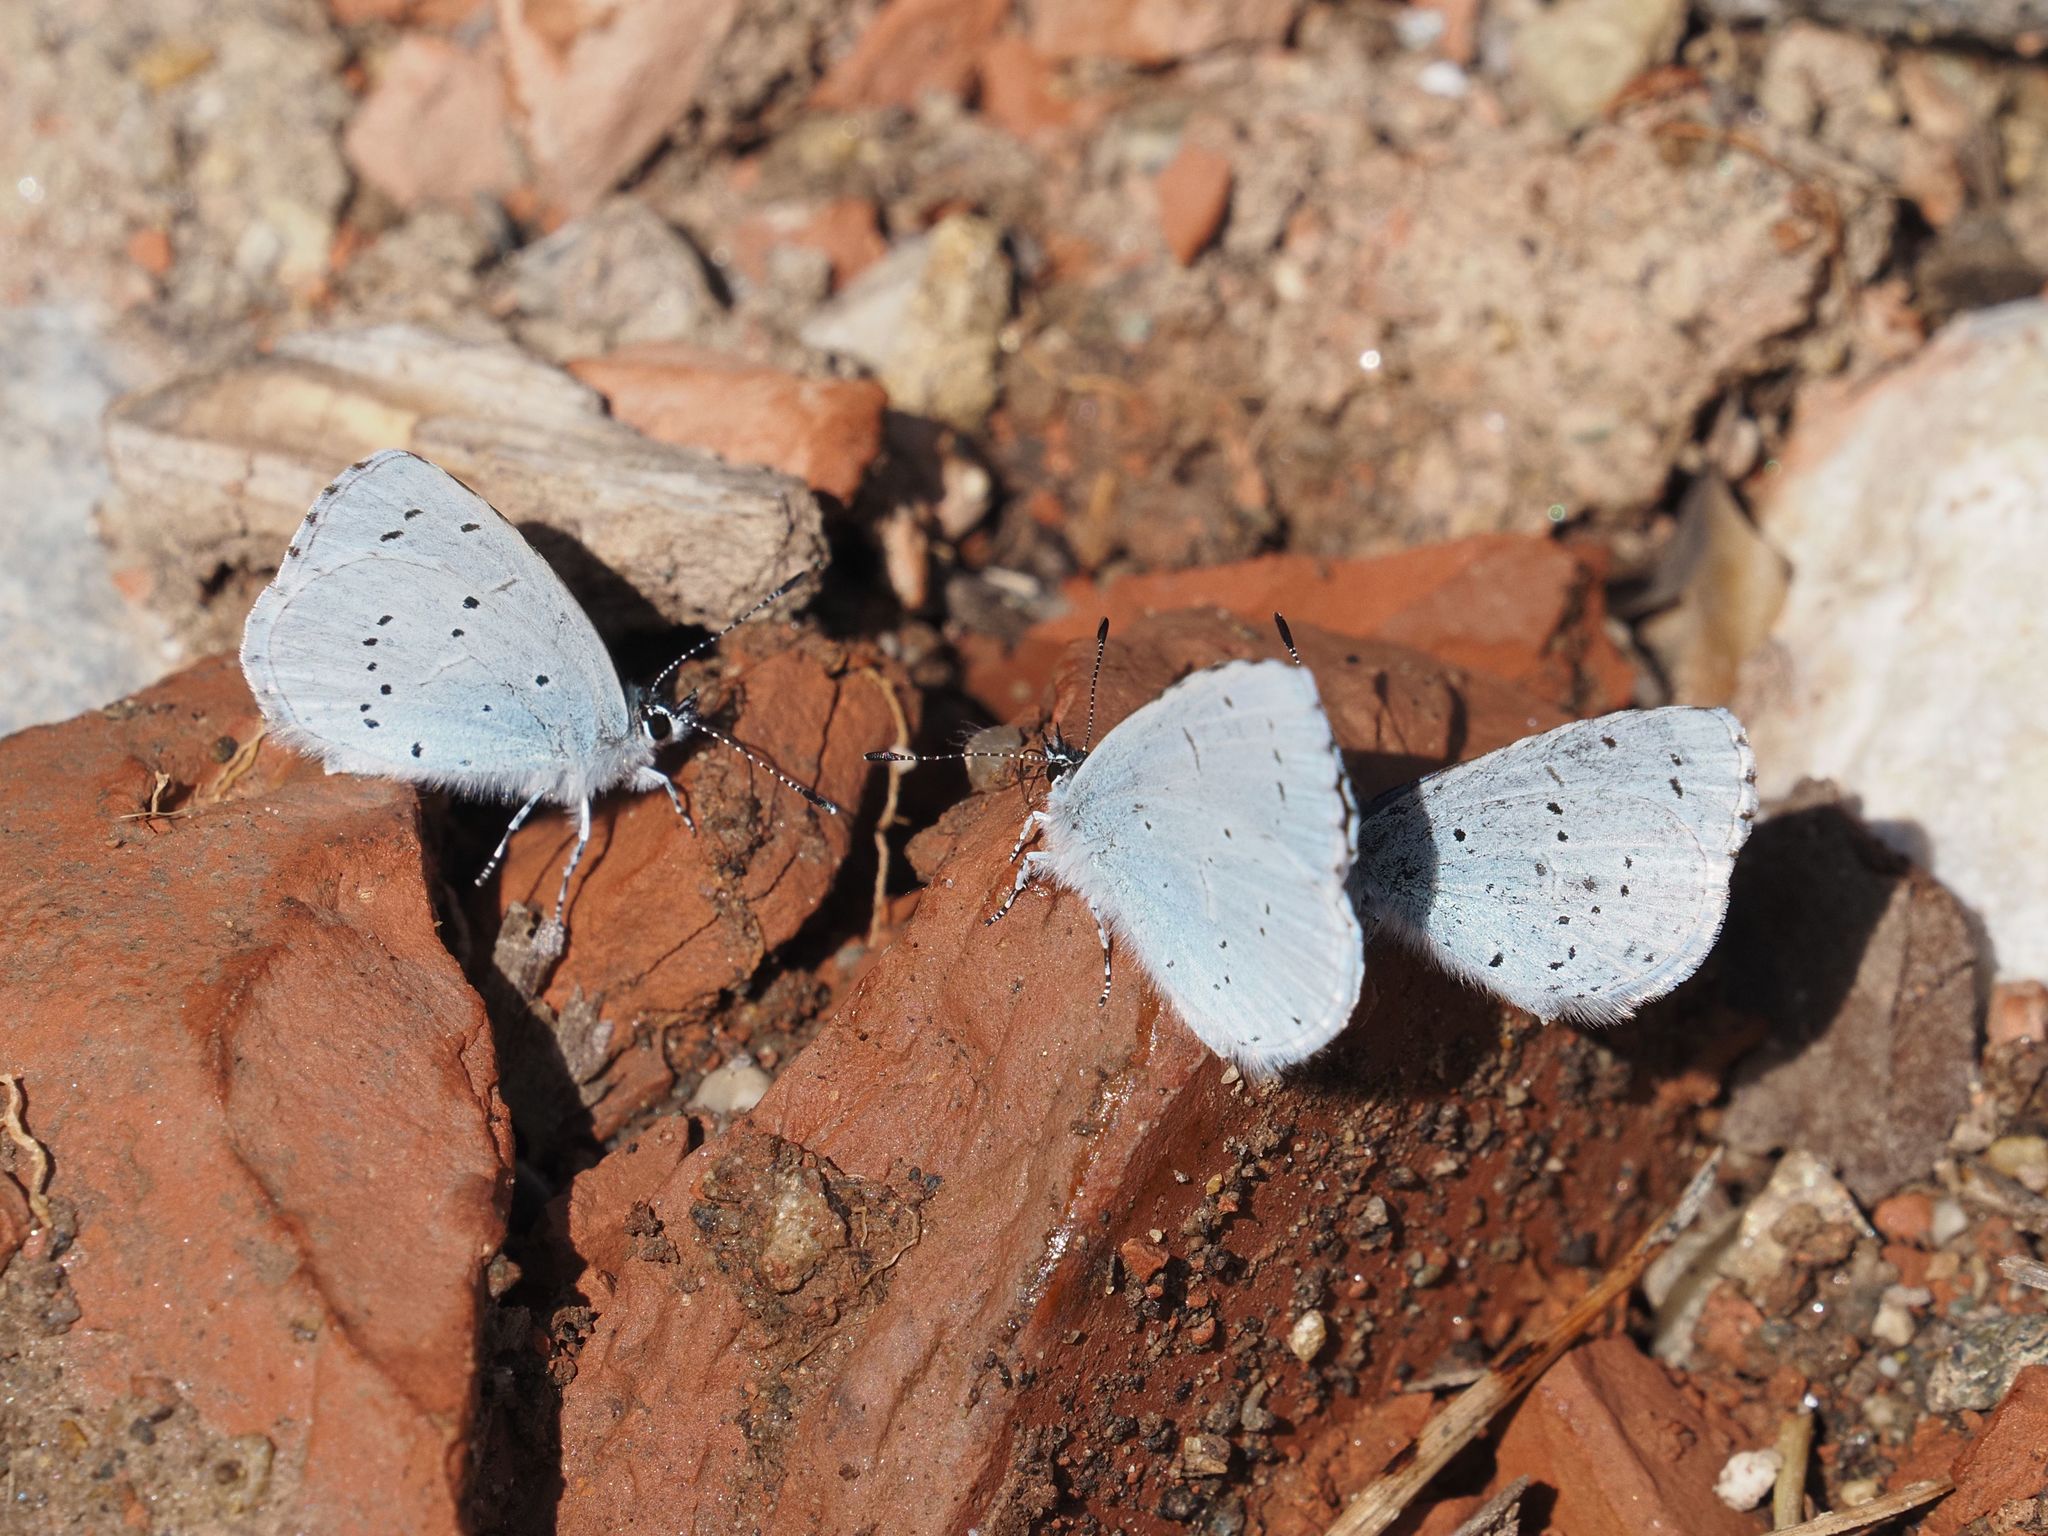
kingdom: Animalia
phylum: Arthropoda
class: Insecta
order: Lepidoptera
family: Lycaenidae
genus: Celastrina
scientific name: Celastrina argiolus
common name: Holly blue
